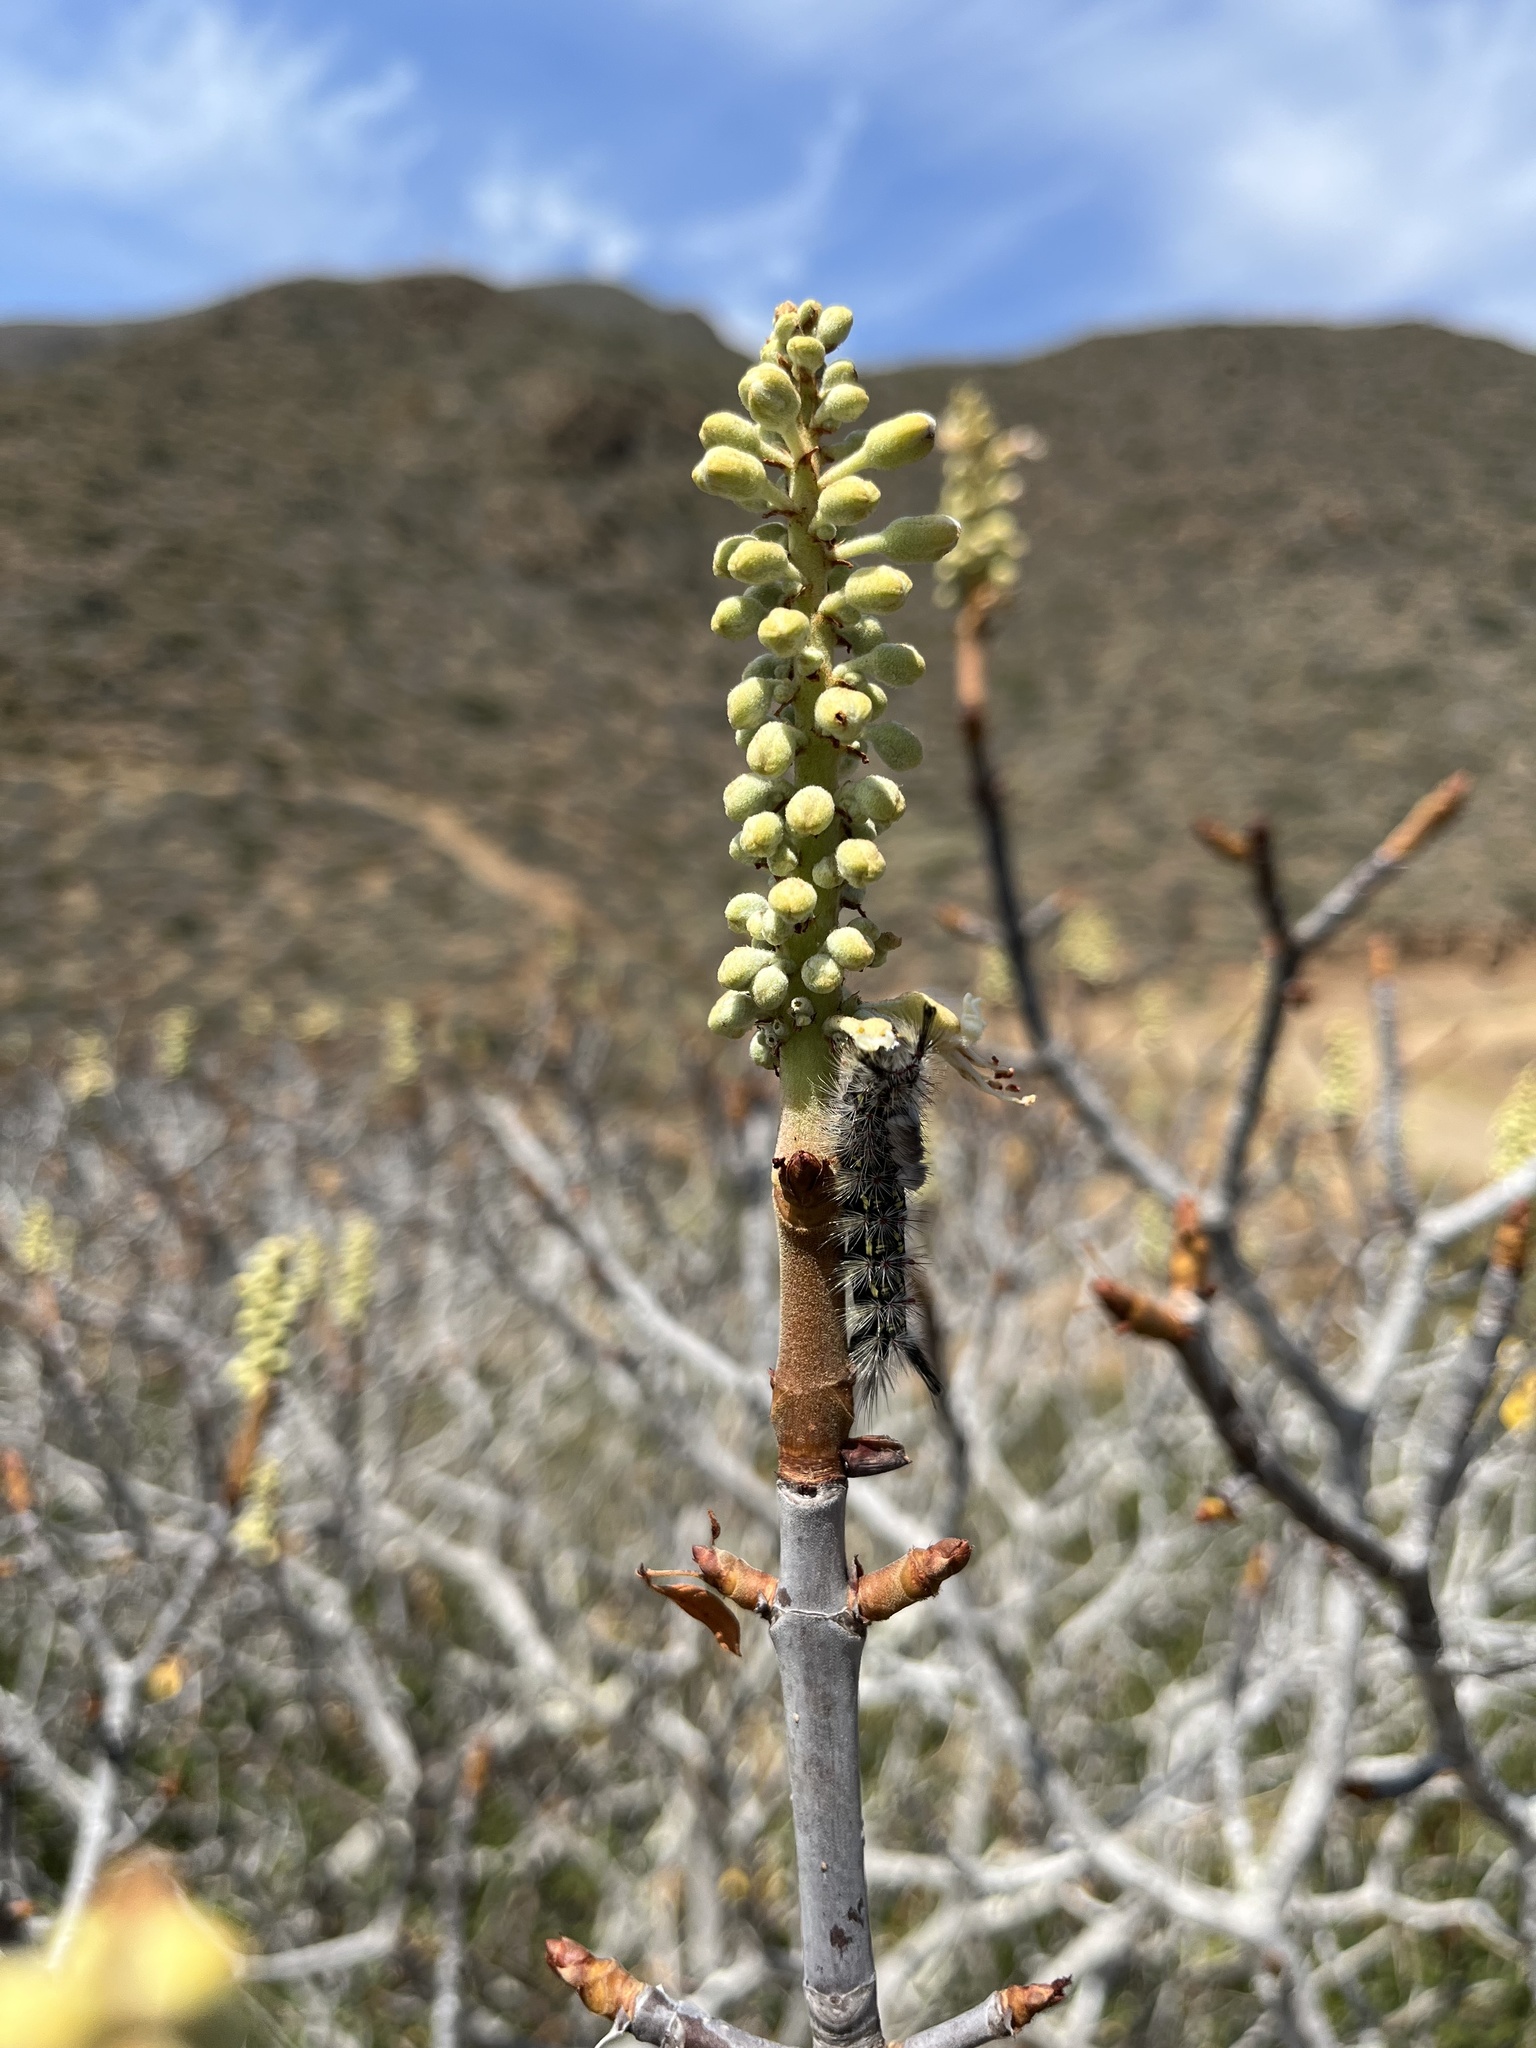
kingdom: Plantae
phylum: Tracheophyta
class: Magnoliopsida
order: Sapindales
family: Sapindaceae
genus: Aesculus
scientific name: Aesculus parryi
